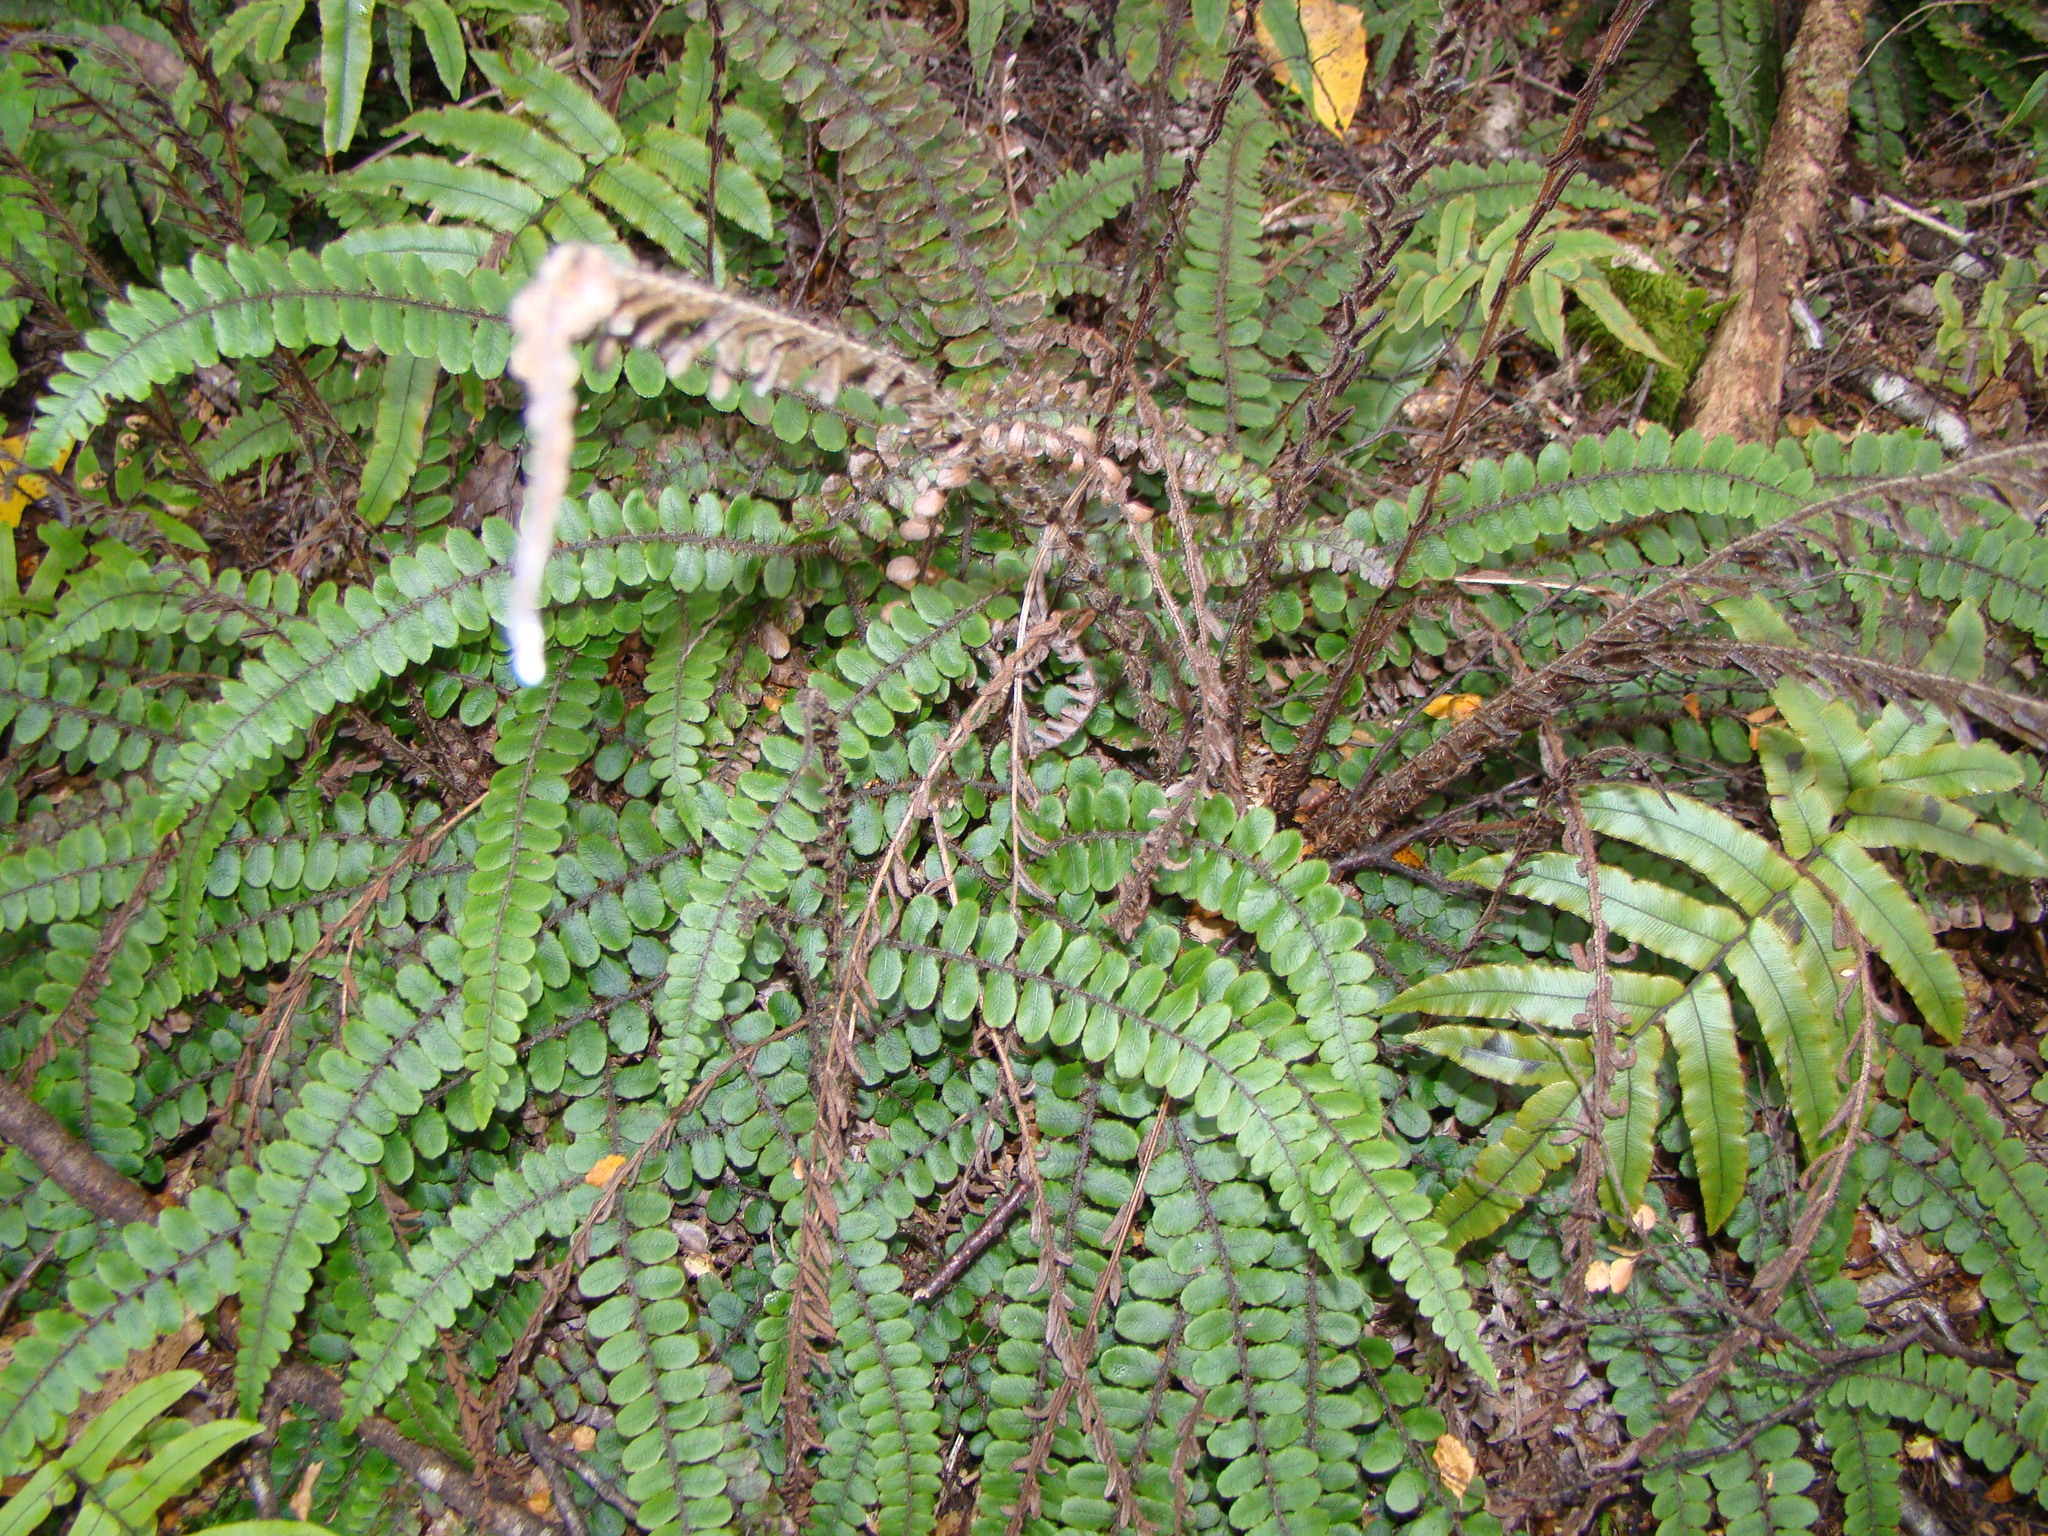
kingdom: Plantae
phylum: Tracheophyta
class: Polypodiopsida
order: Polypodiales
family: Blechnaceae
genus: Cranfillia
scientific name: Cranfillia fluviatilis
